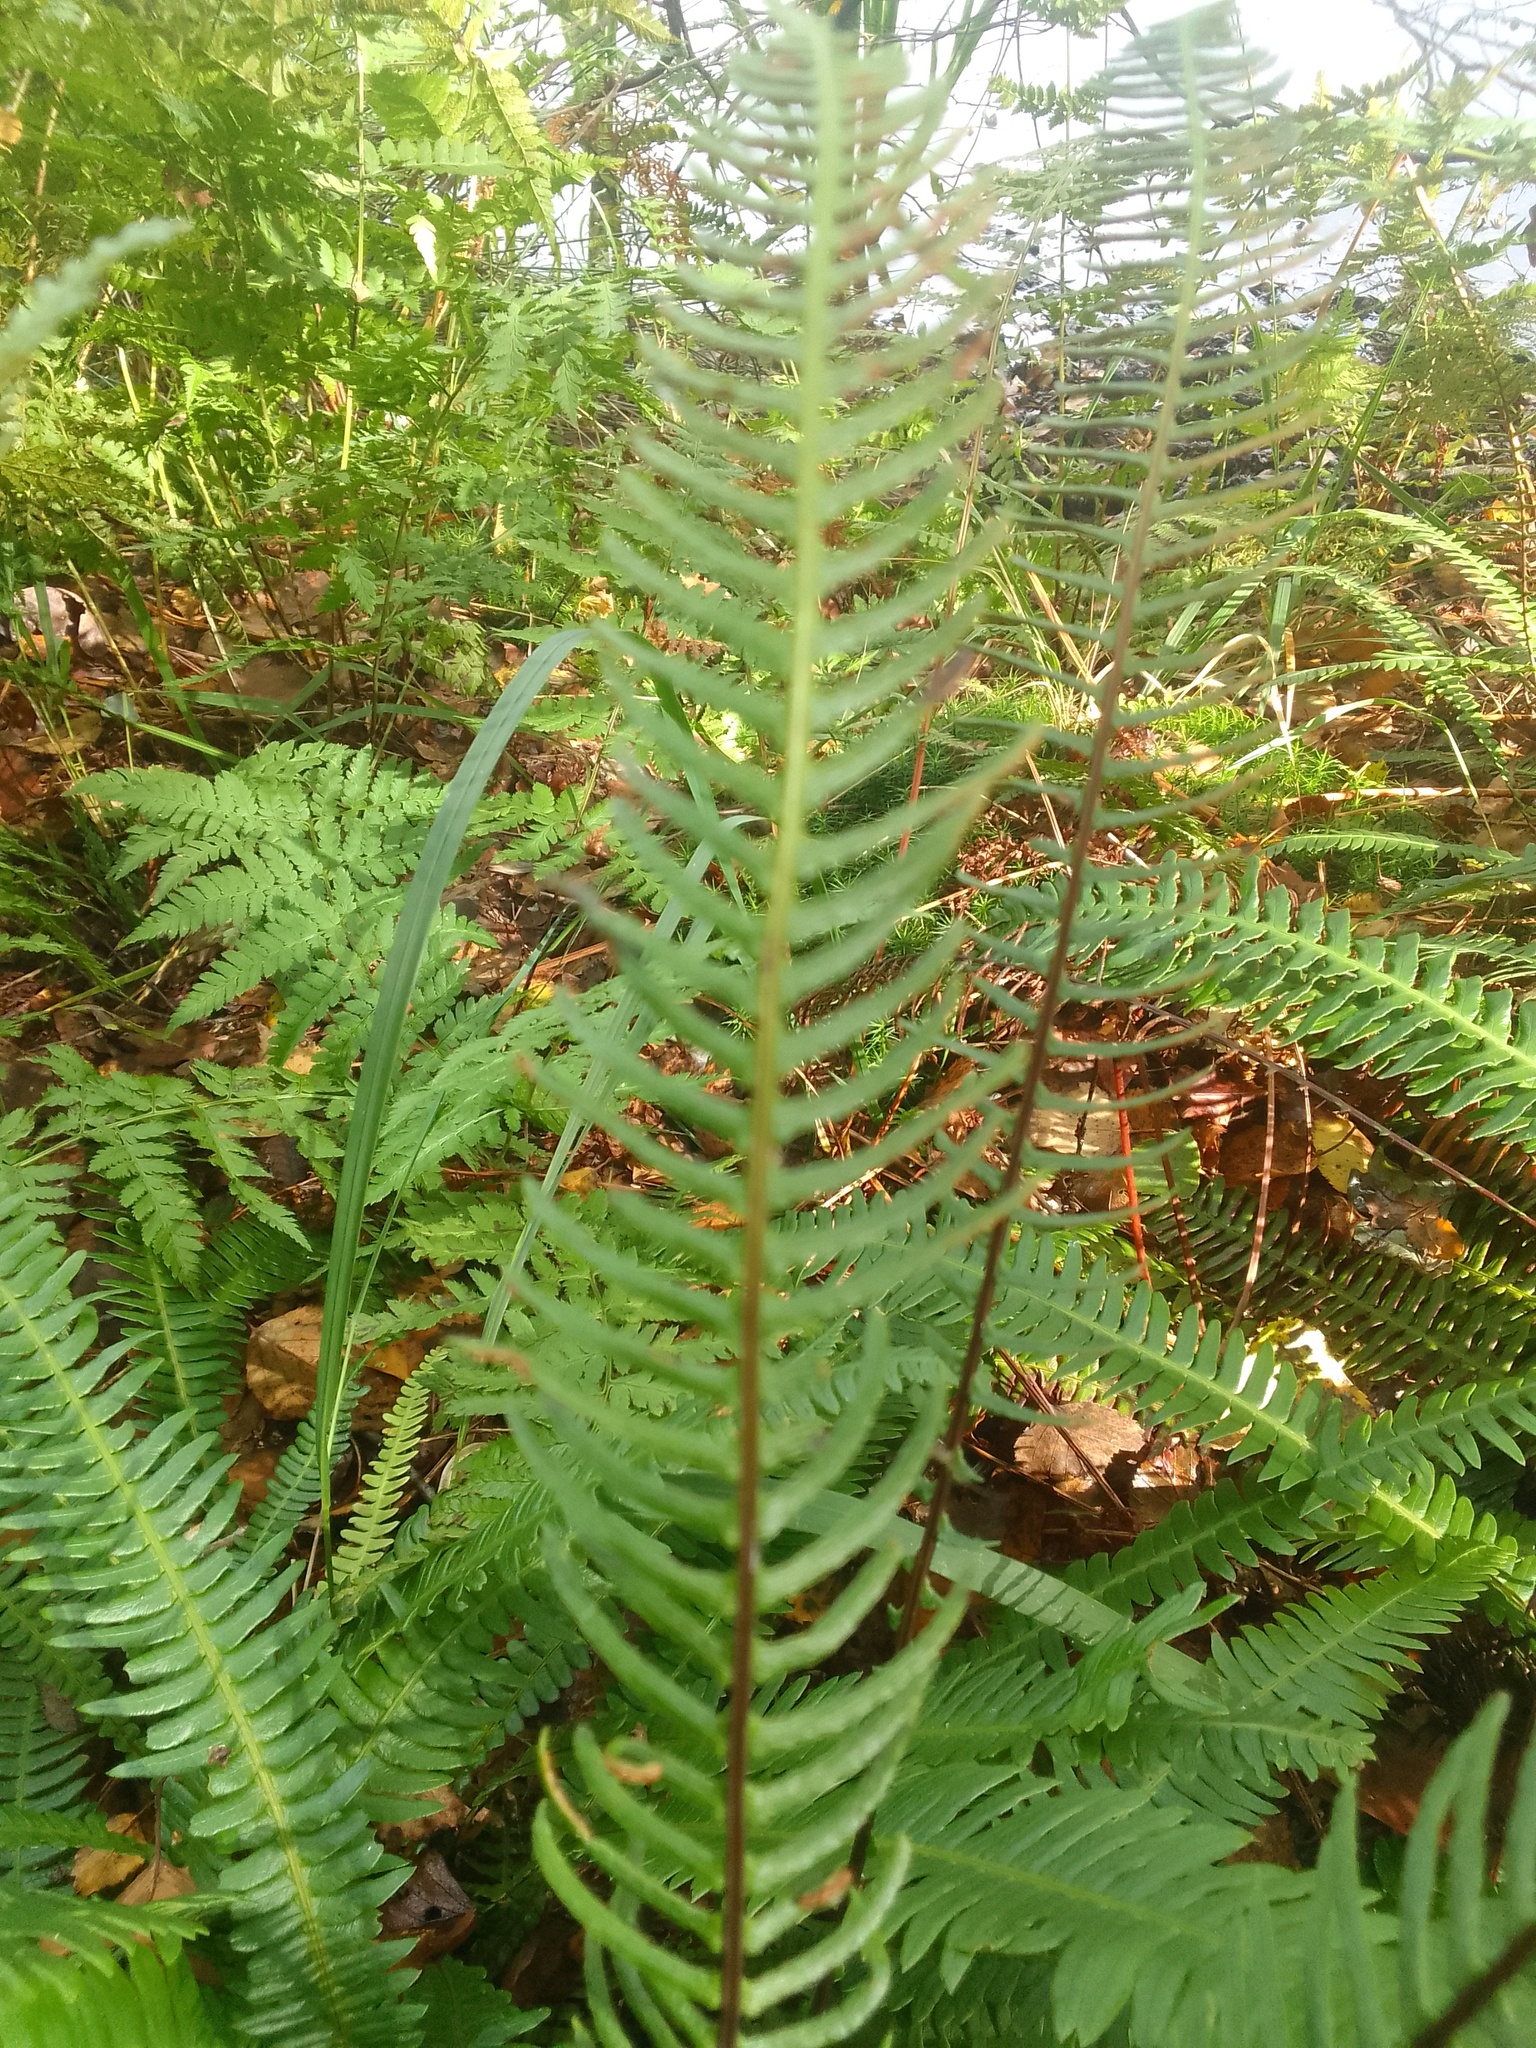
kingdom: Plantae
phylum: Tracheophyta
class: Polypodiopsida
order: Polypodiales
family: Blechnaceae
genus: Struthiopteris
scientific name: Struthiopteris spicant
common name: Deer fern
